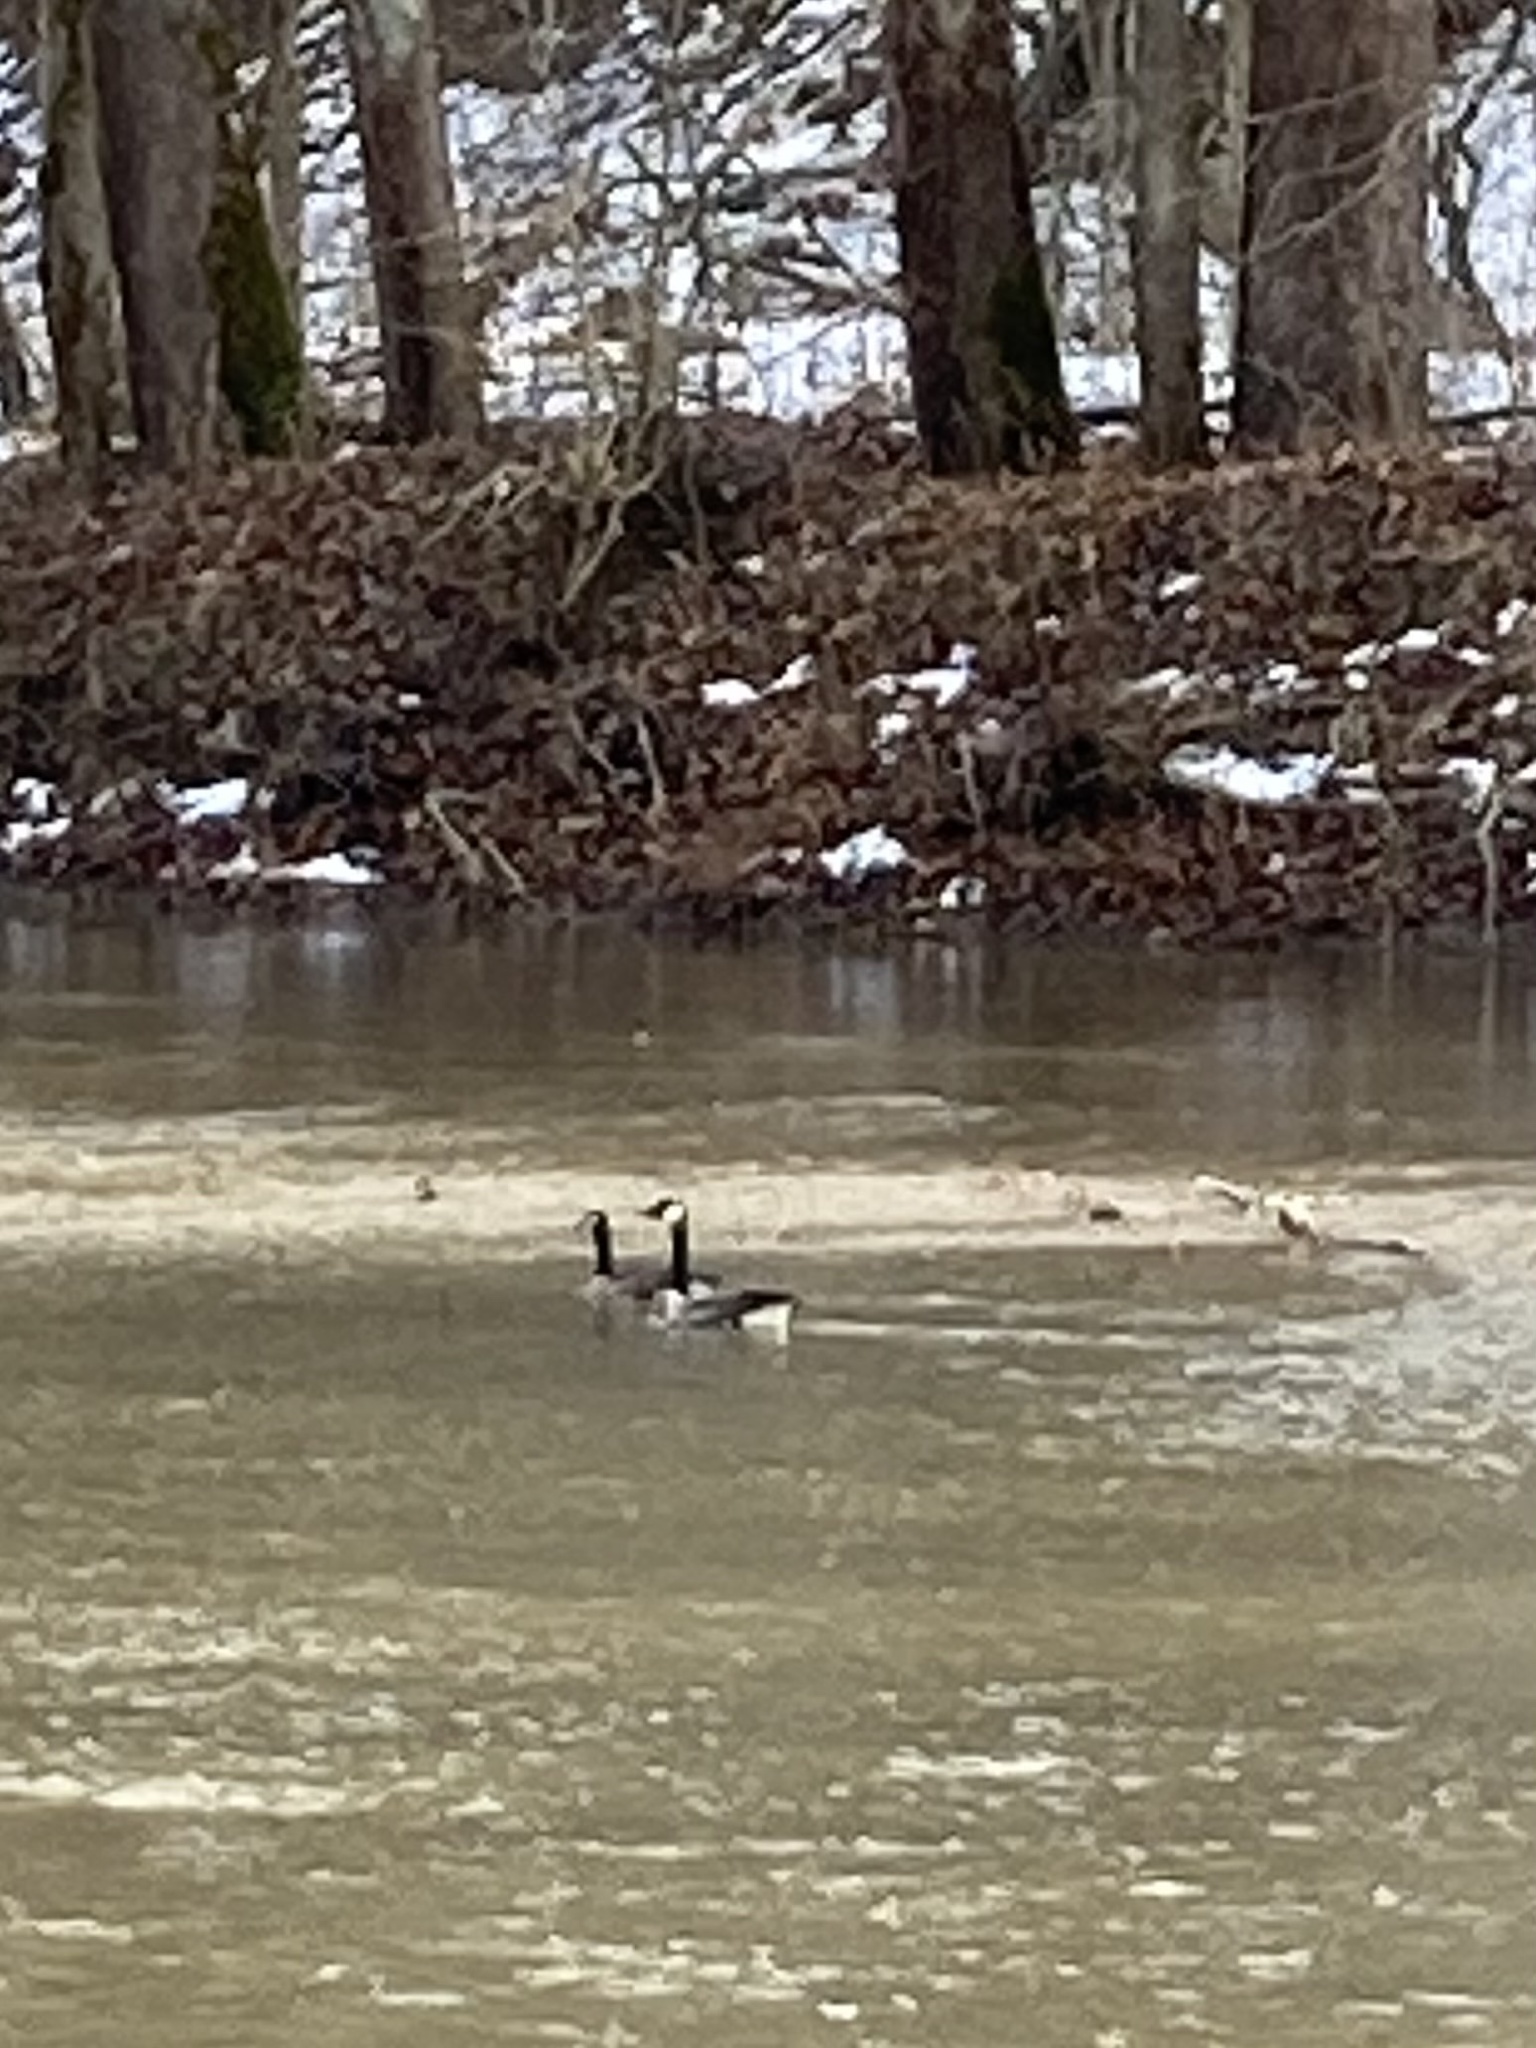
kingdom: Animalia
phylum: Chordata
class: Aves
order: Anseriformes
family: Anatidae
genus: Branta
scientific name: Branta canadensis
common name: Canada goose
